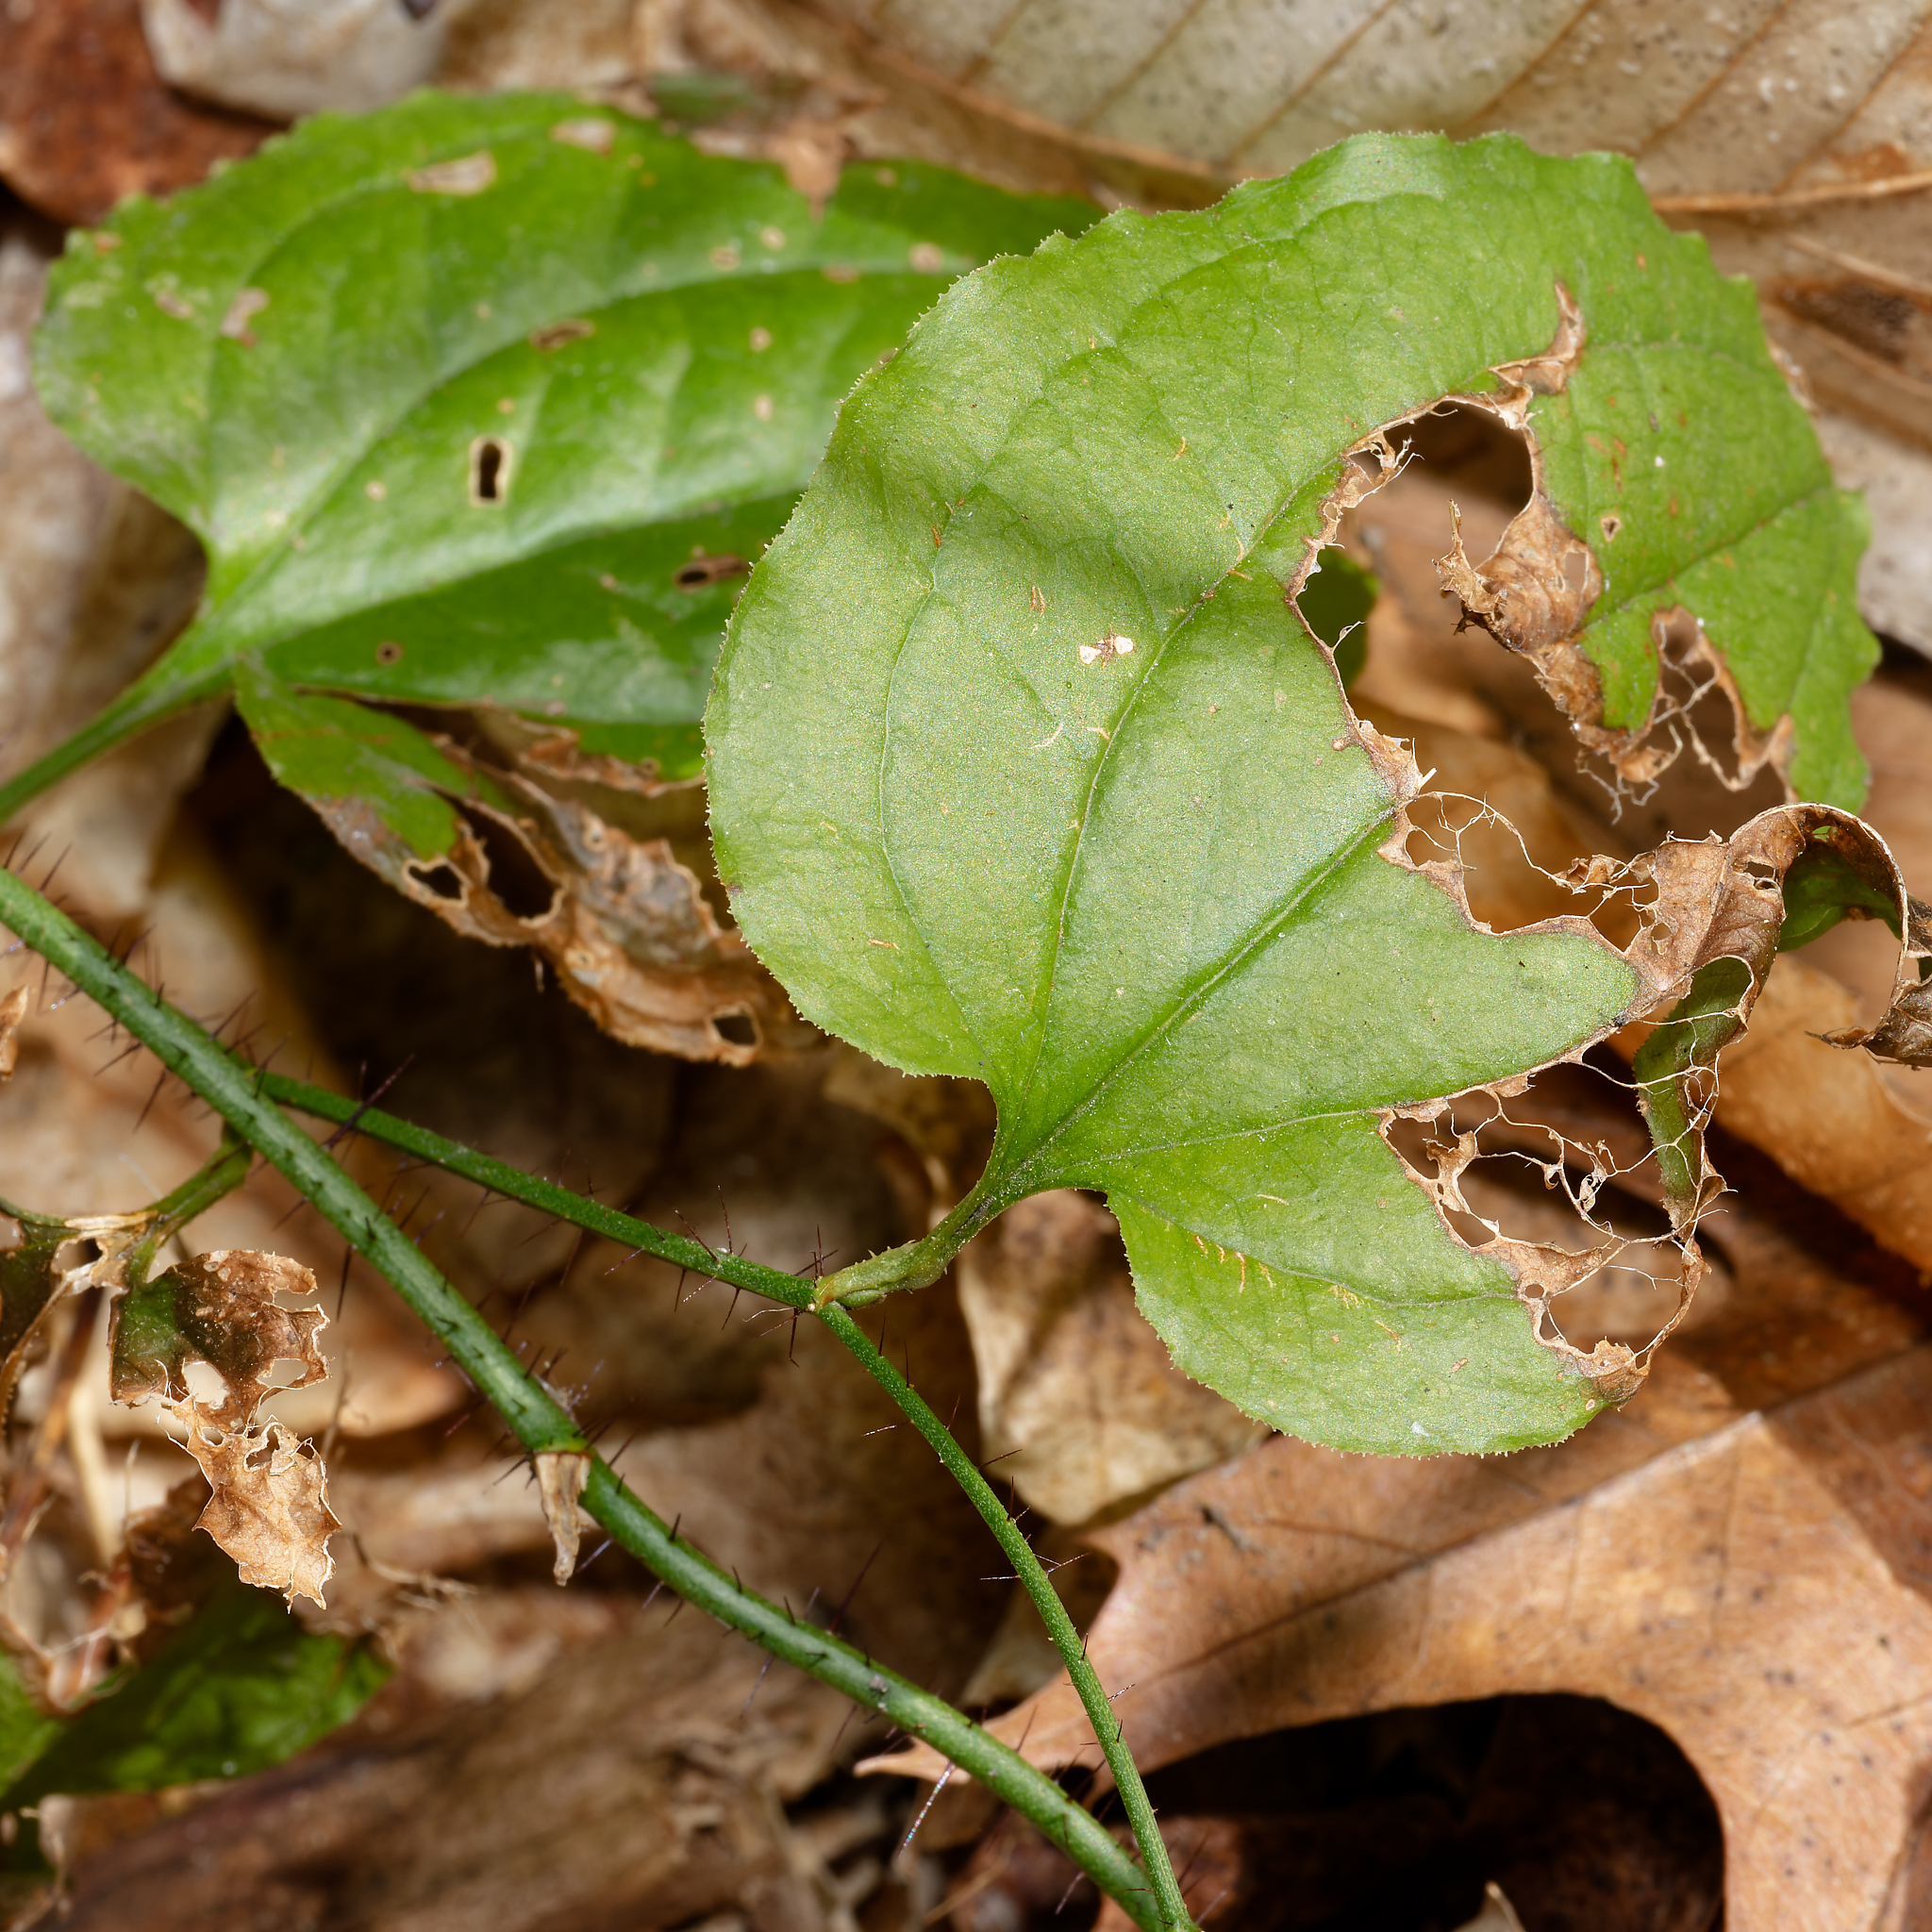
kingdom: Plantae
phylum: Tracheophyta
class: Liliopsida
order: Liliales
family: Smilacaceae
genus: Smilax
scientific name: Smilax tamnoides
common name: Hellfetter
